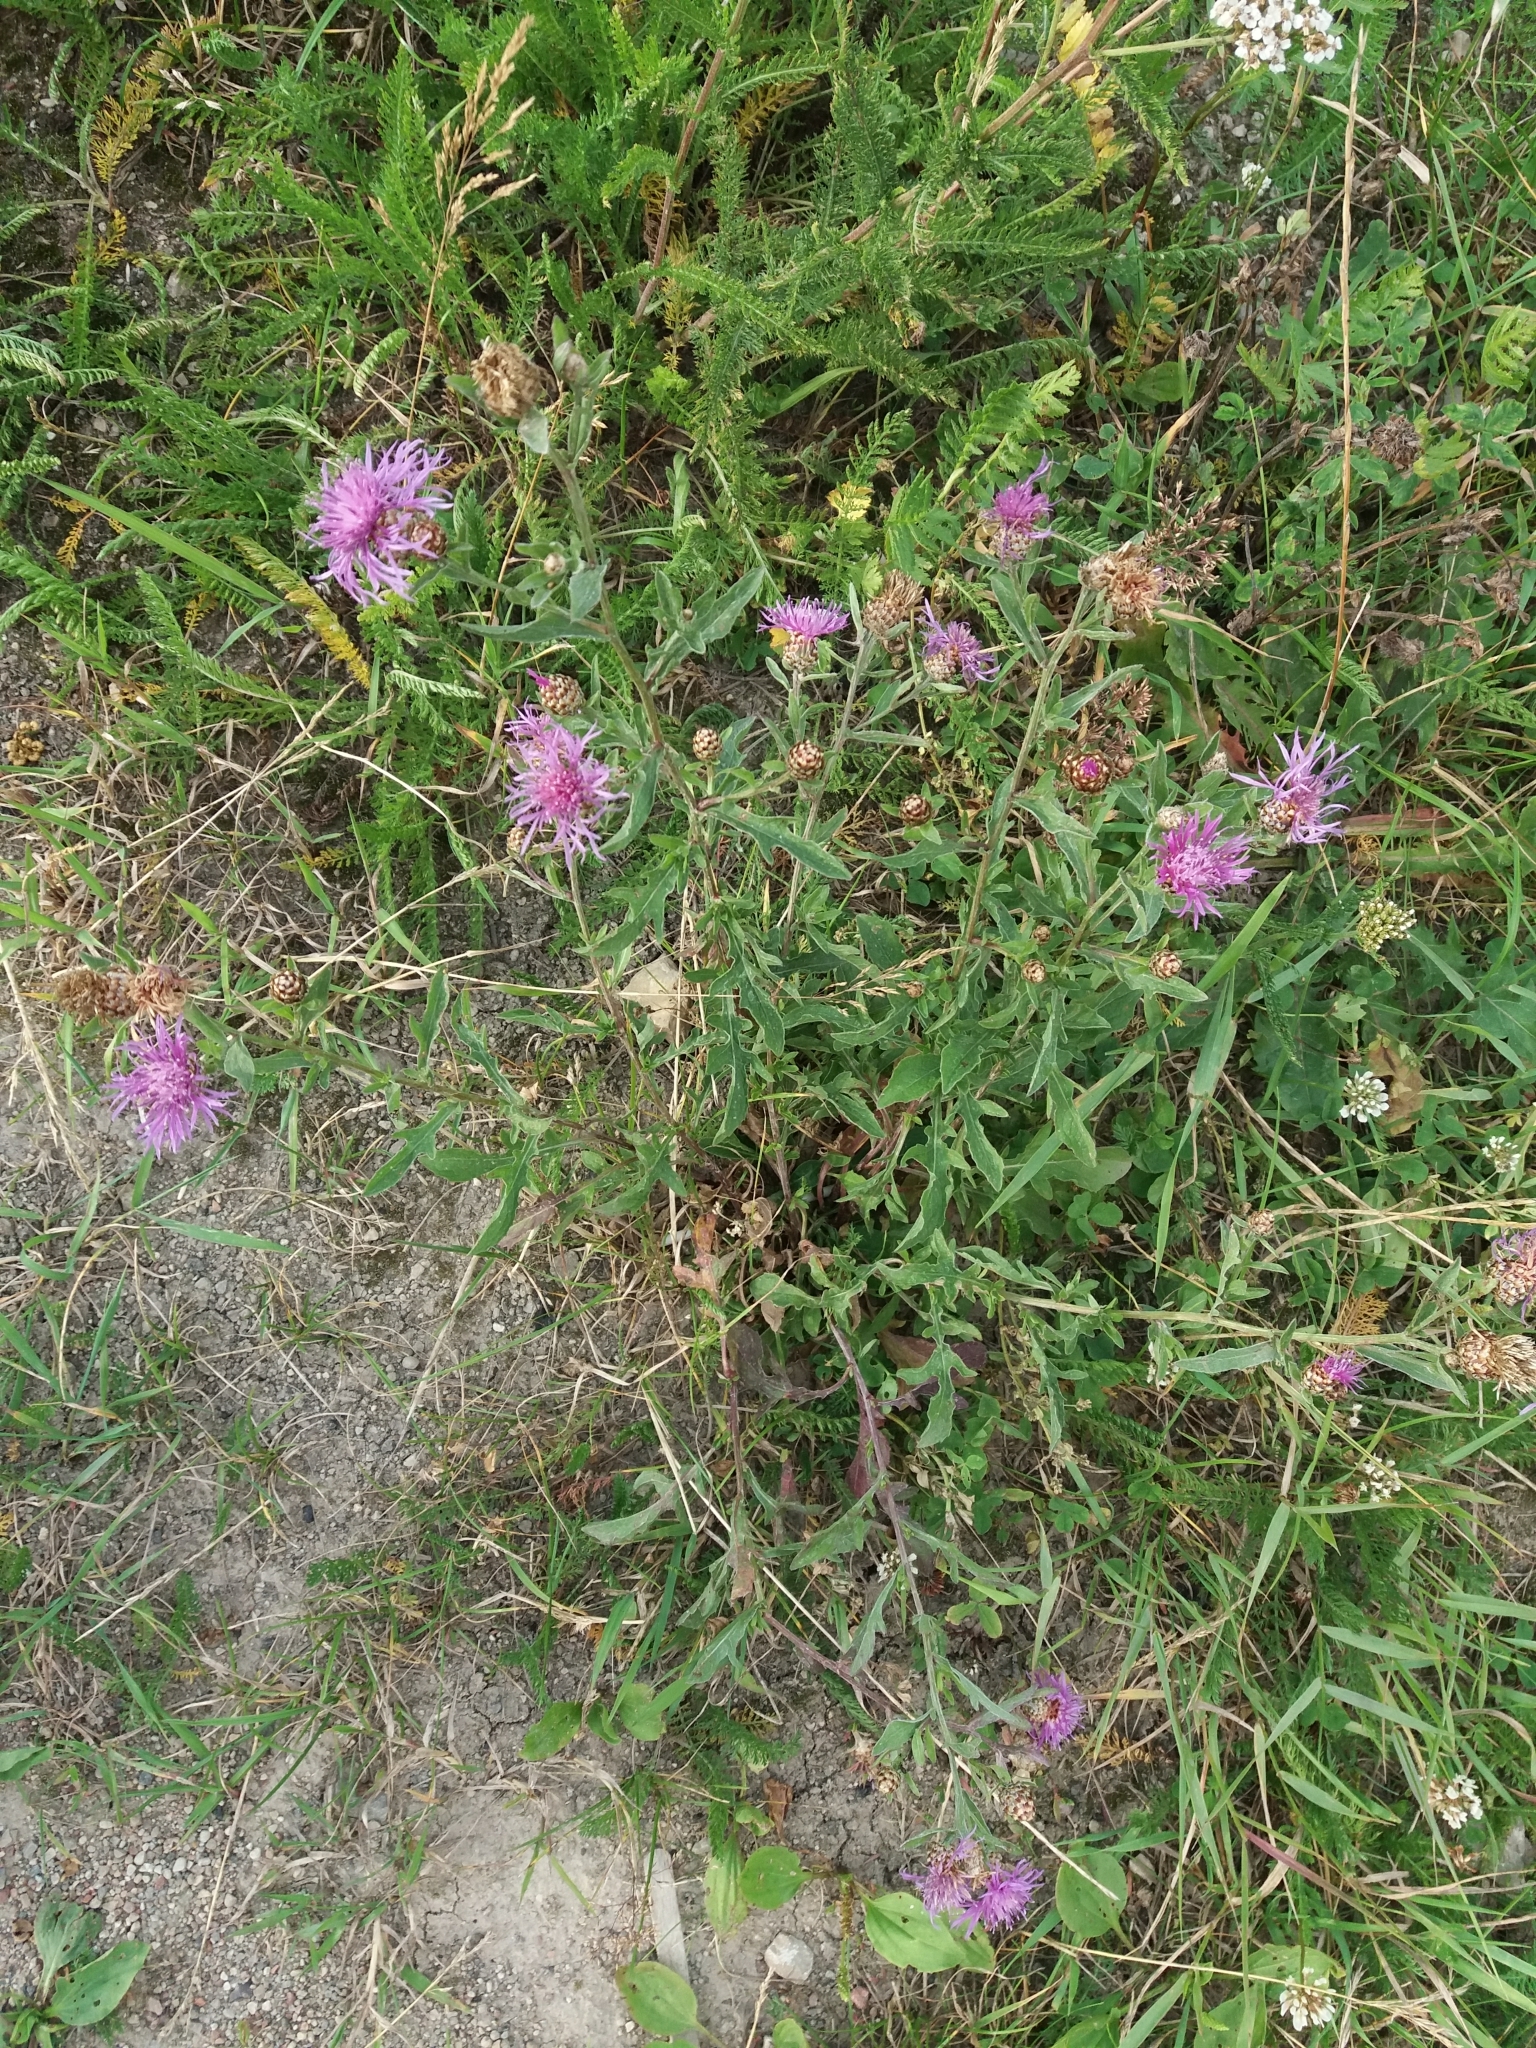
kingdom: Plantae
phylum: Tracheophyta
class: Magnoliopsida
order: Asterales
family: Asteraceae
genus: Centaurea
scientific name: Centaurea jacea
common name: Brown knapweed
